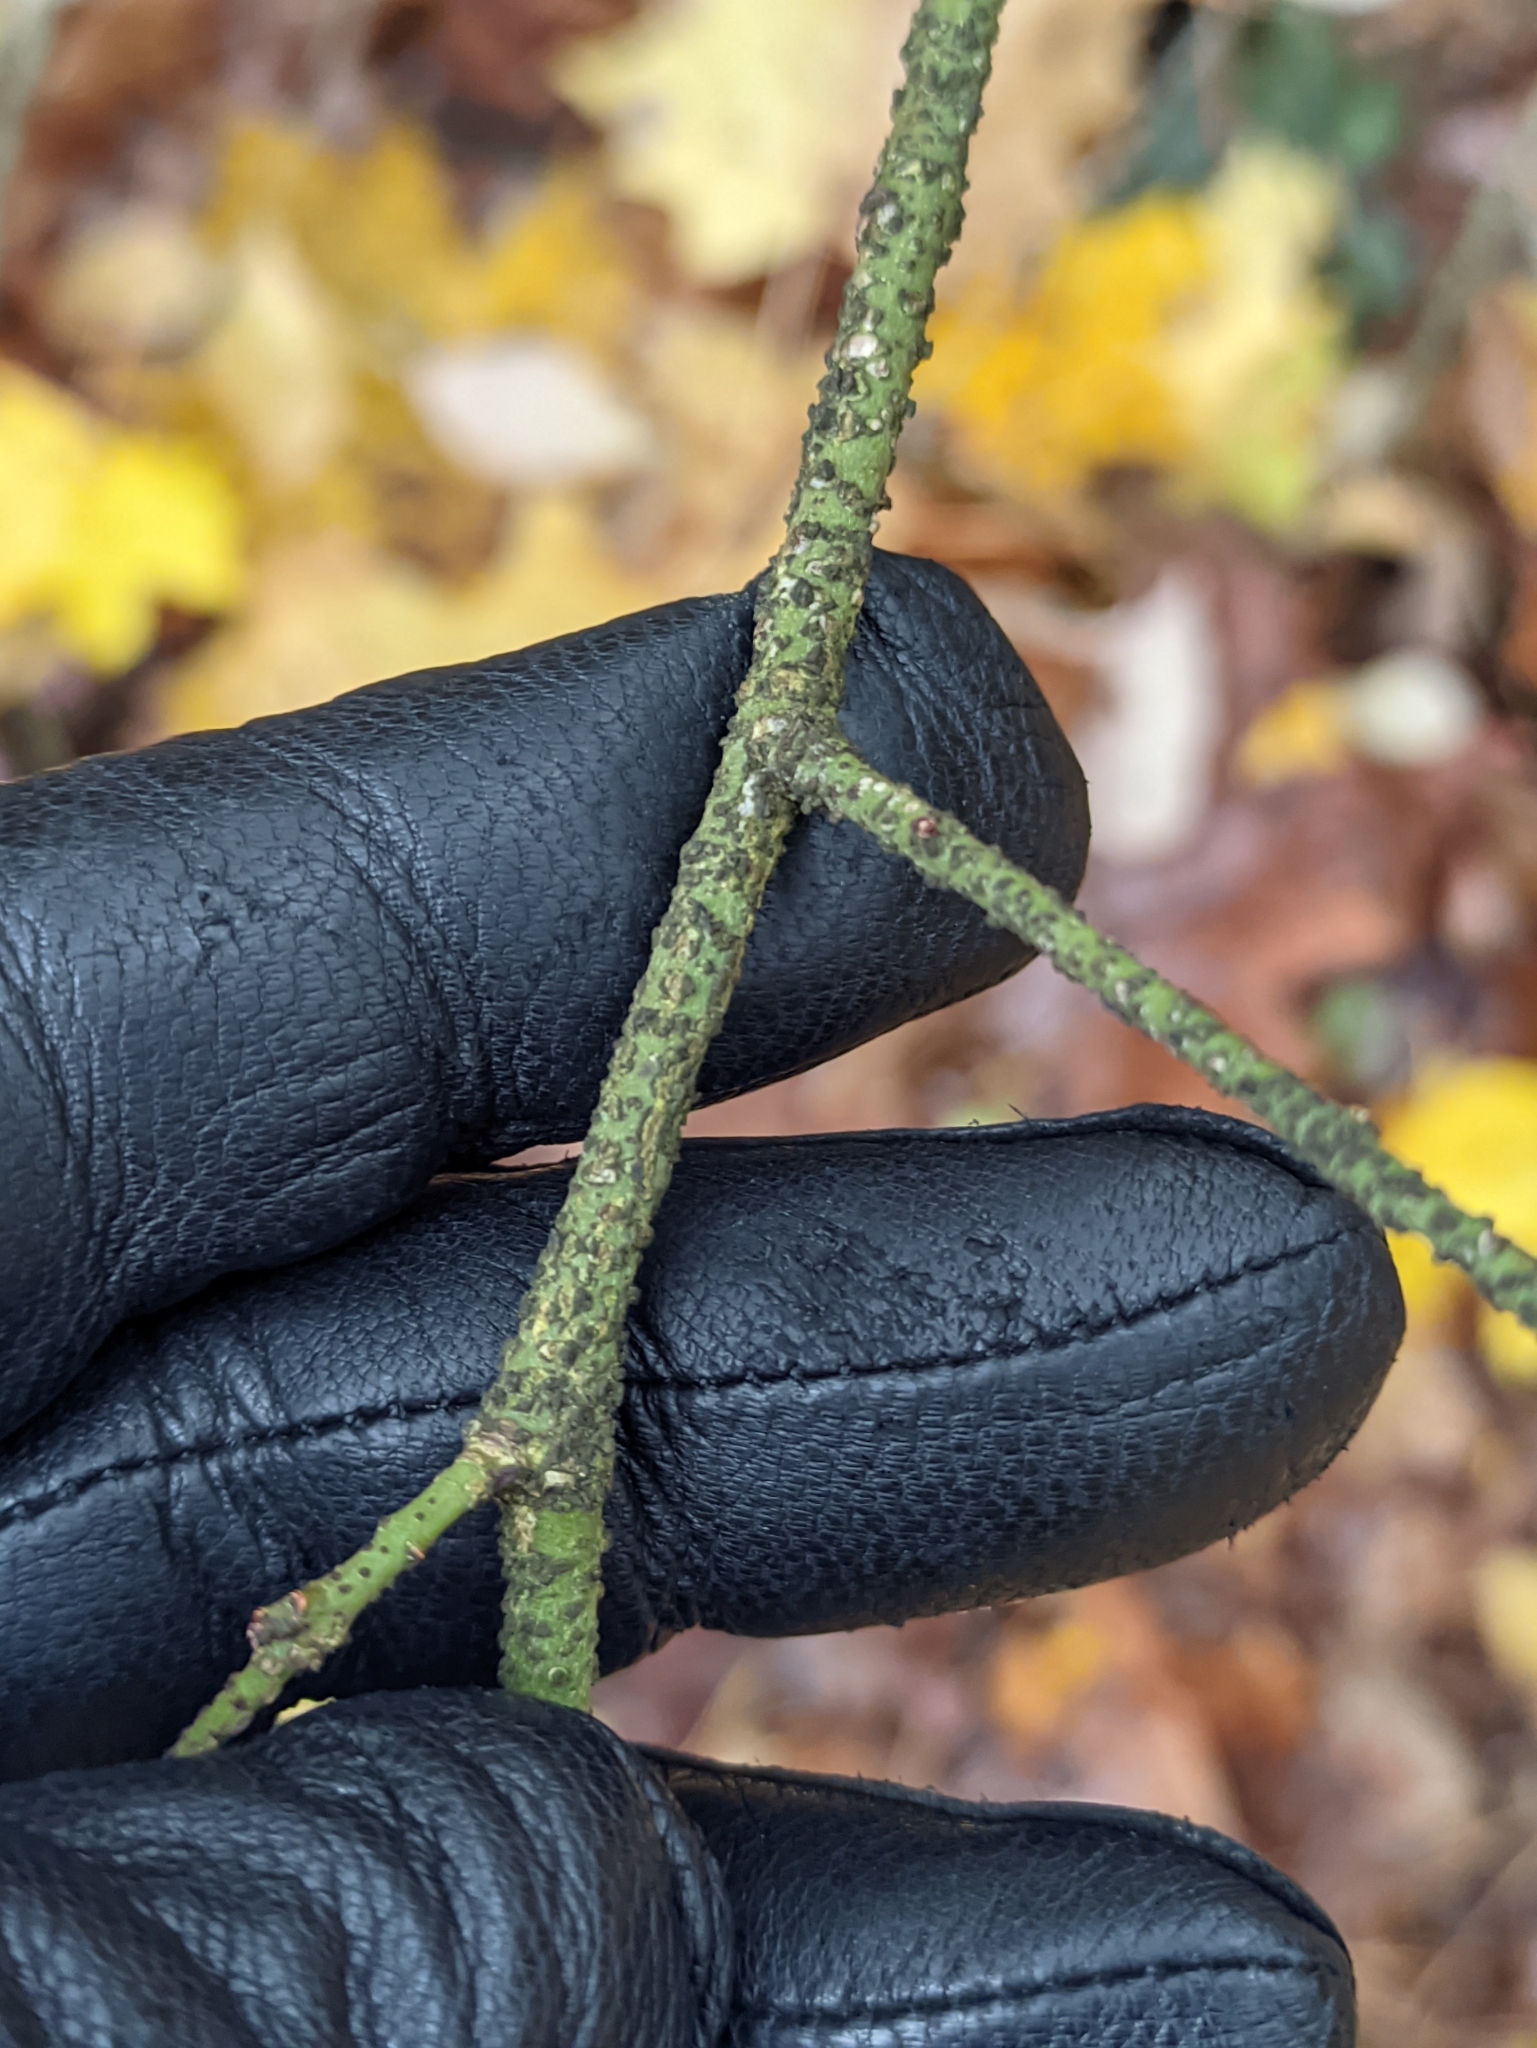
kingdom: Plantae
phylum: Tracheophyta
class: Magnoliopsida
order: Celastrales
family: Celastraceae
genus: Euonymus
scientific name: Euonymus verrucosus
